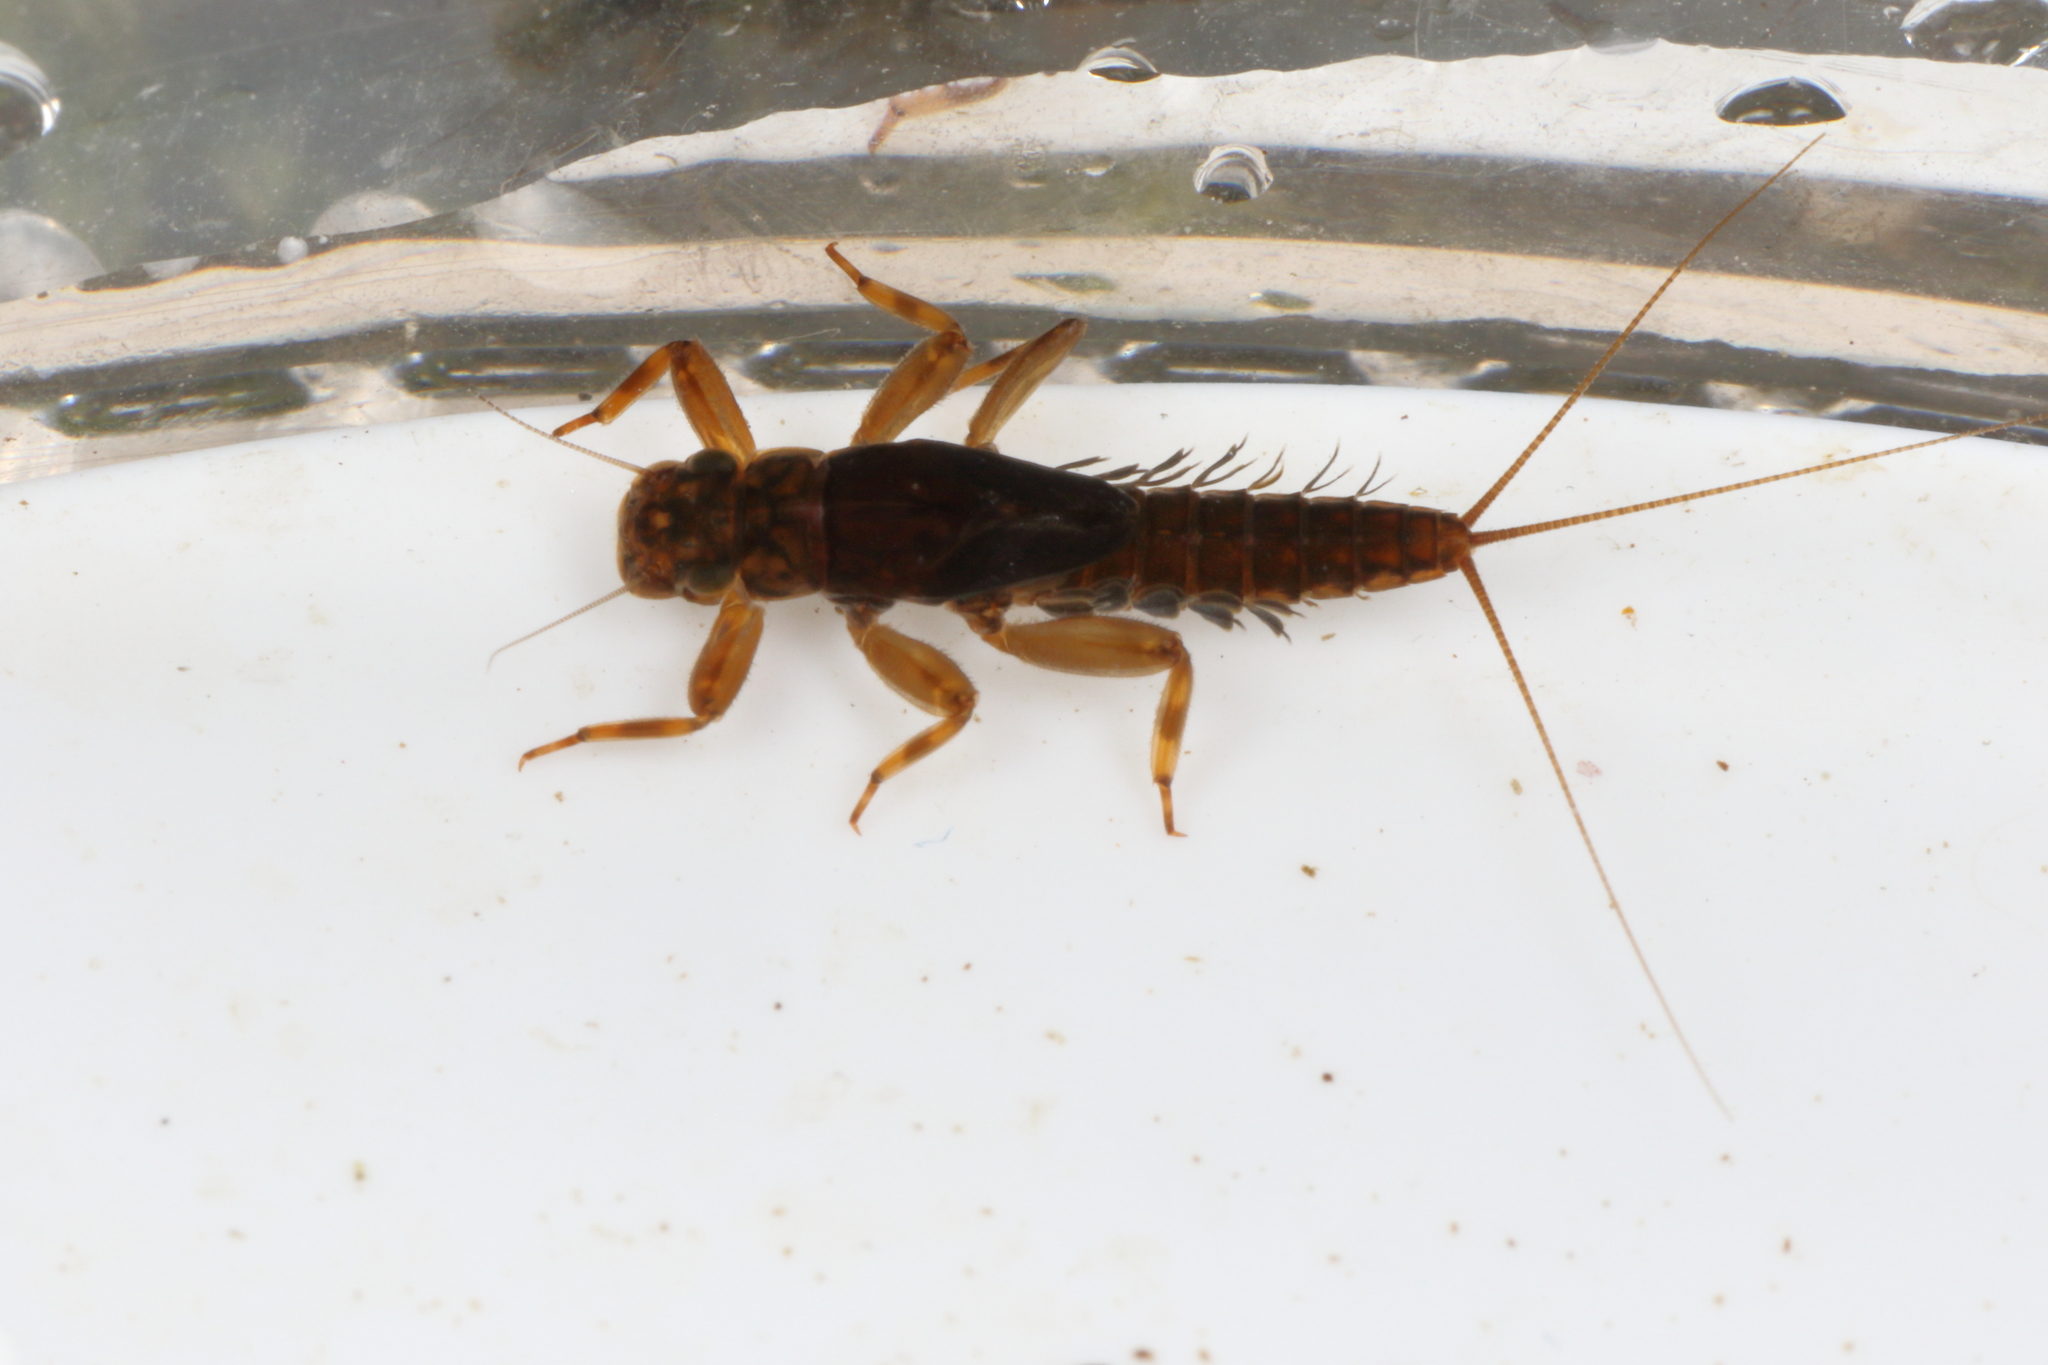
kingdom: Animalia
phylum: Arthropoda
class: Insecta
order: Ephemeroptera
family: Leptophlebiidae
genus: Austroclima
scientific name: Austroclima jollyae
